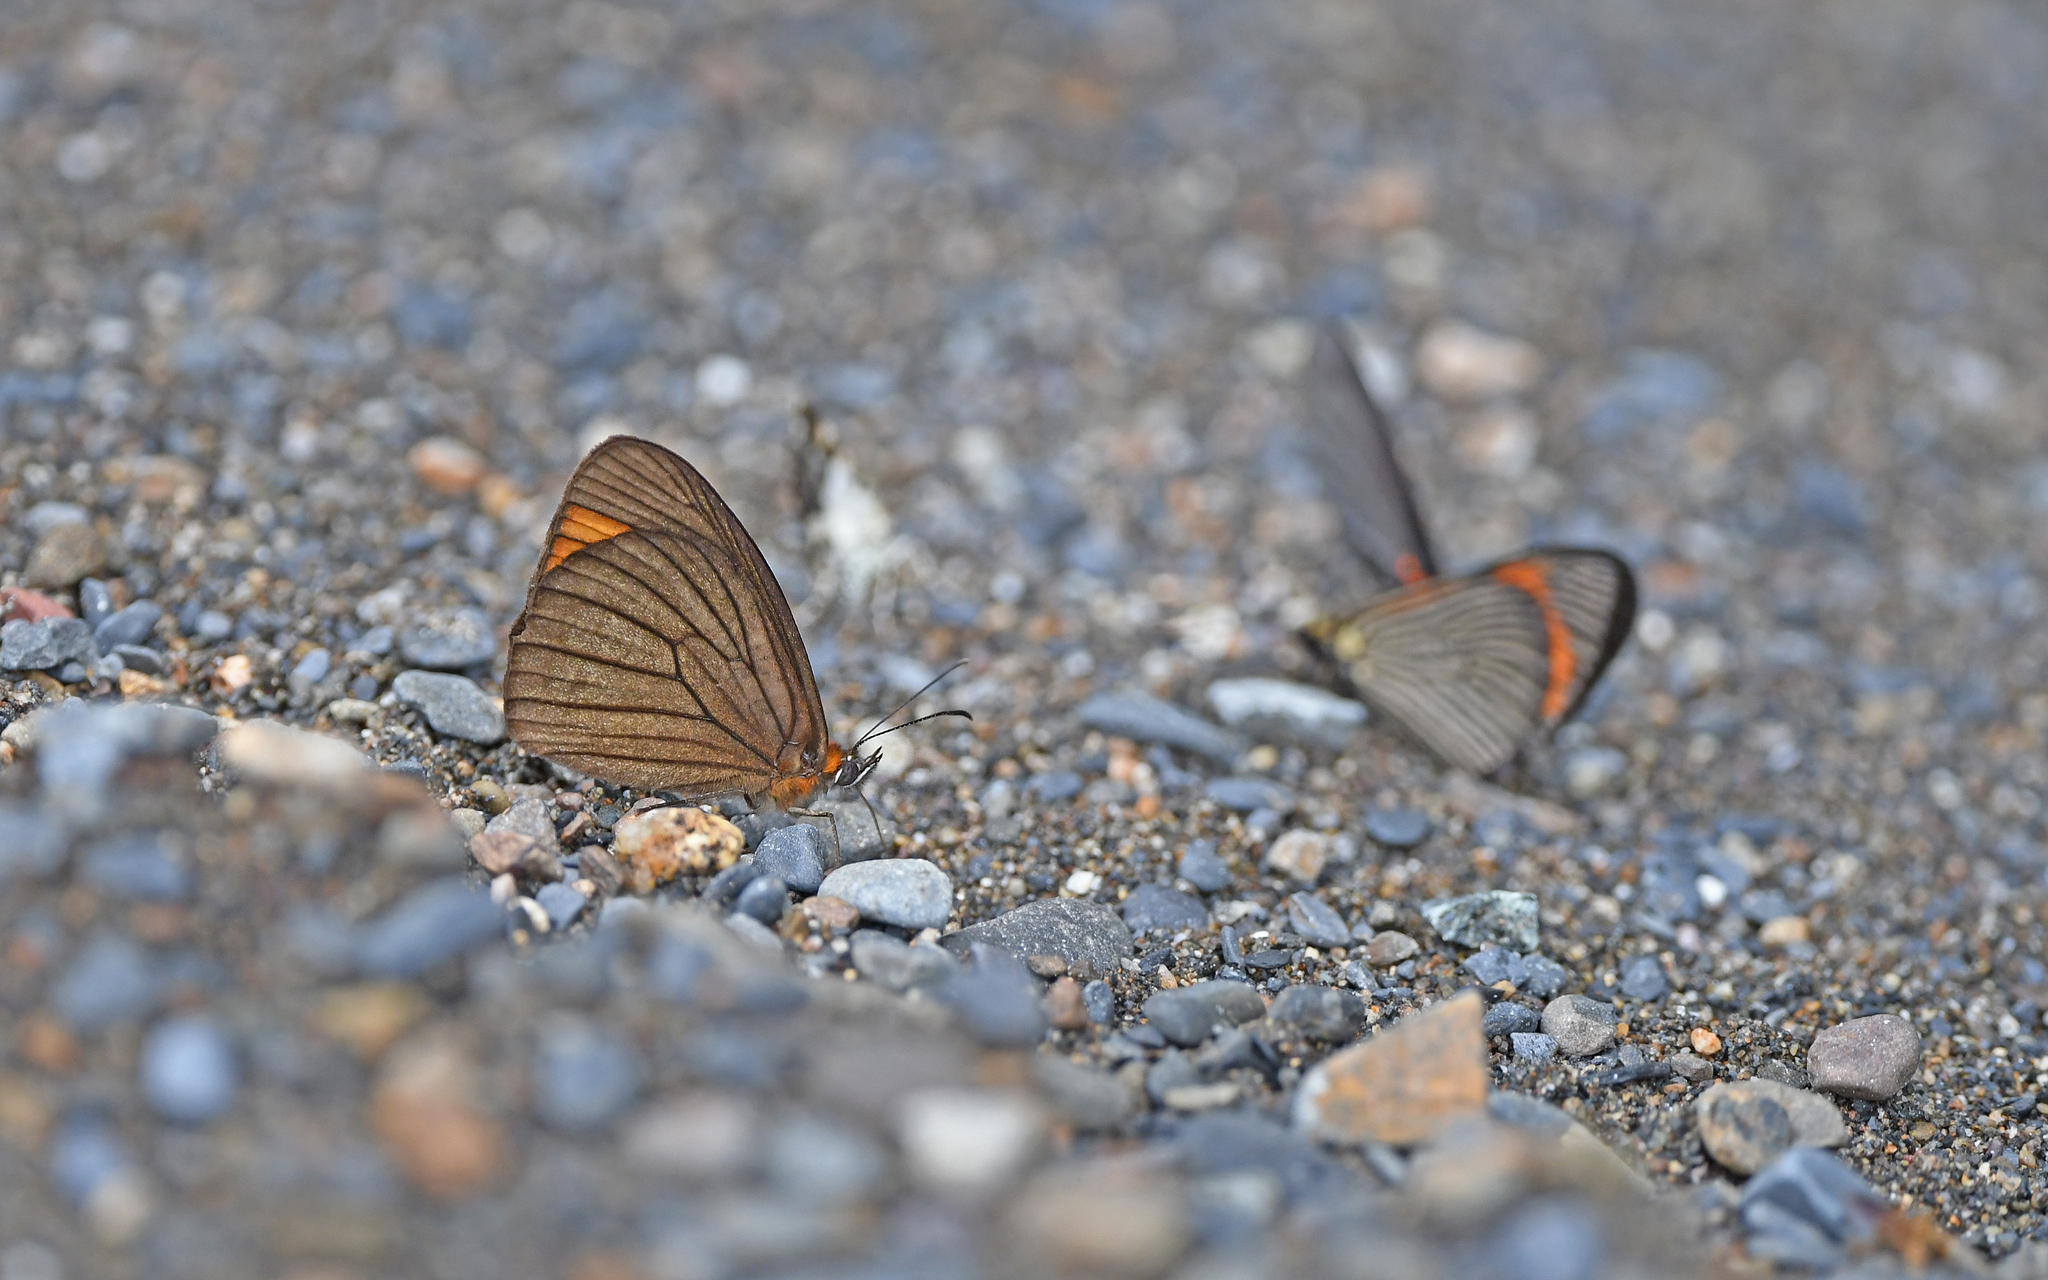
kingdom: Animalia
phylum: Arthropoda
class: Insecta
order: Lepidoptera
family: Nymphalidae
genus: Lymanopoda
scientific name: Lymanopoda venosa
